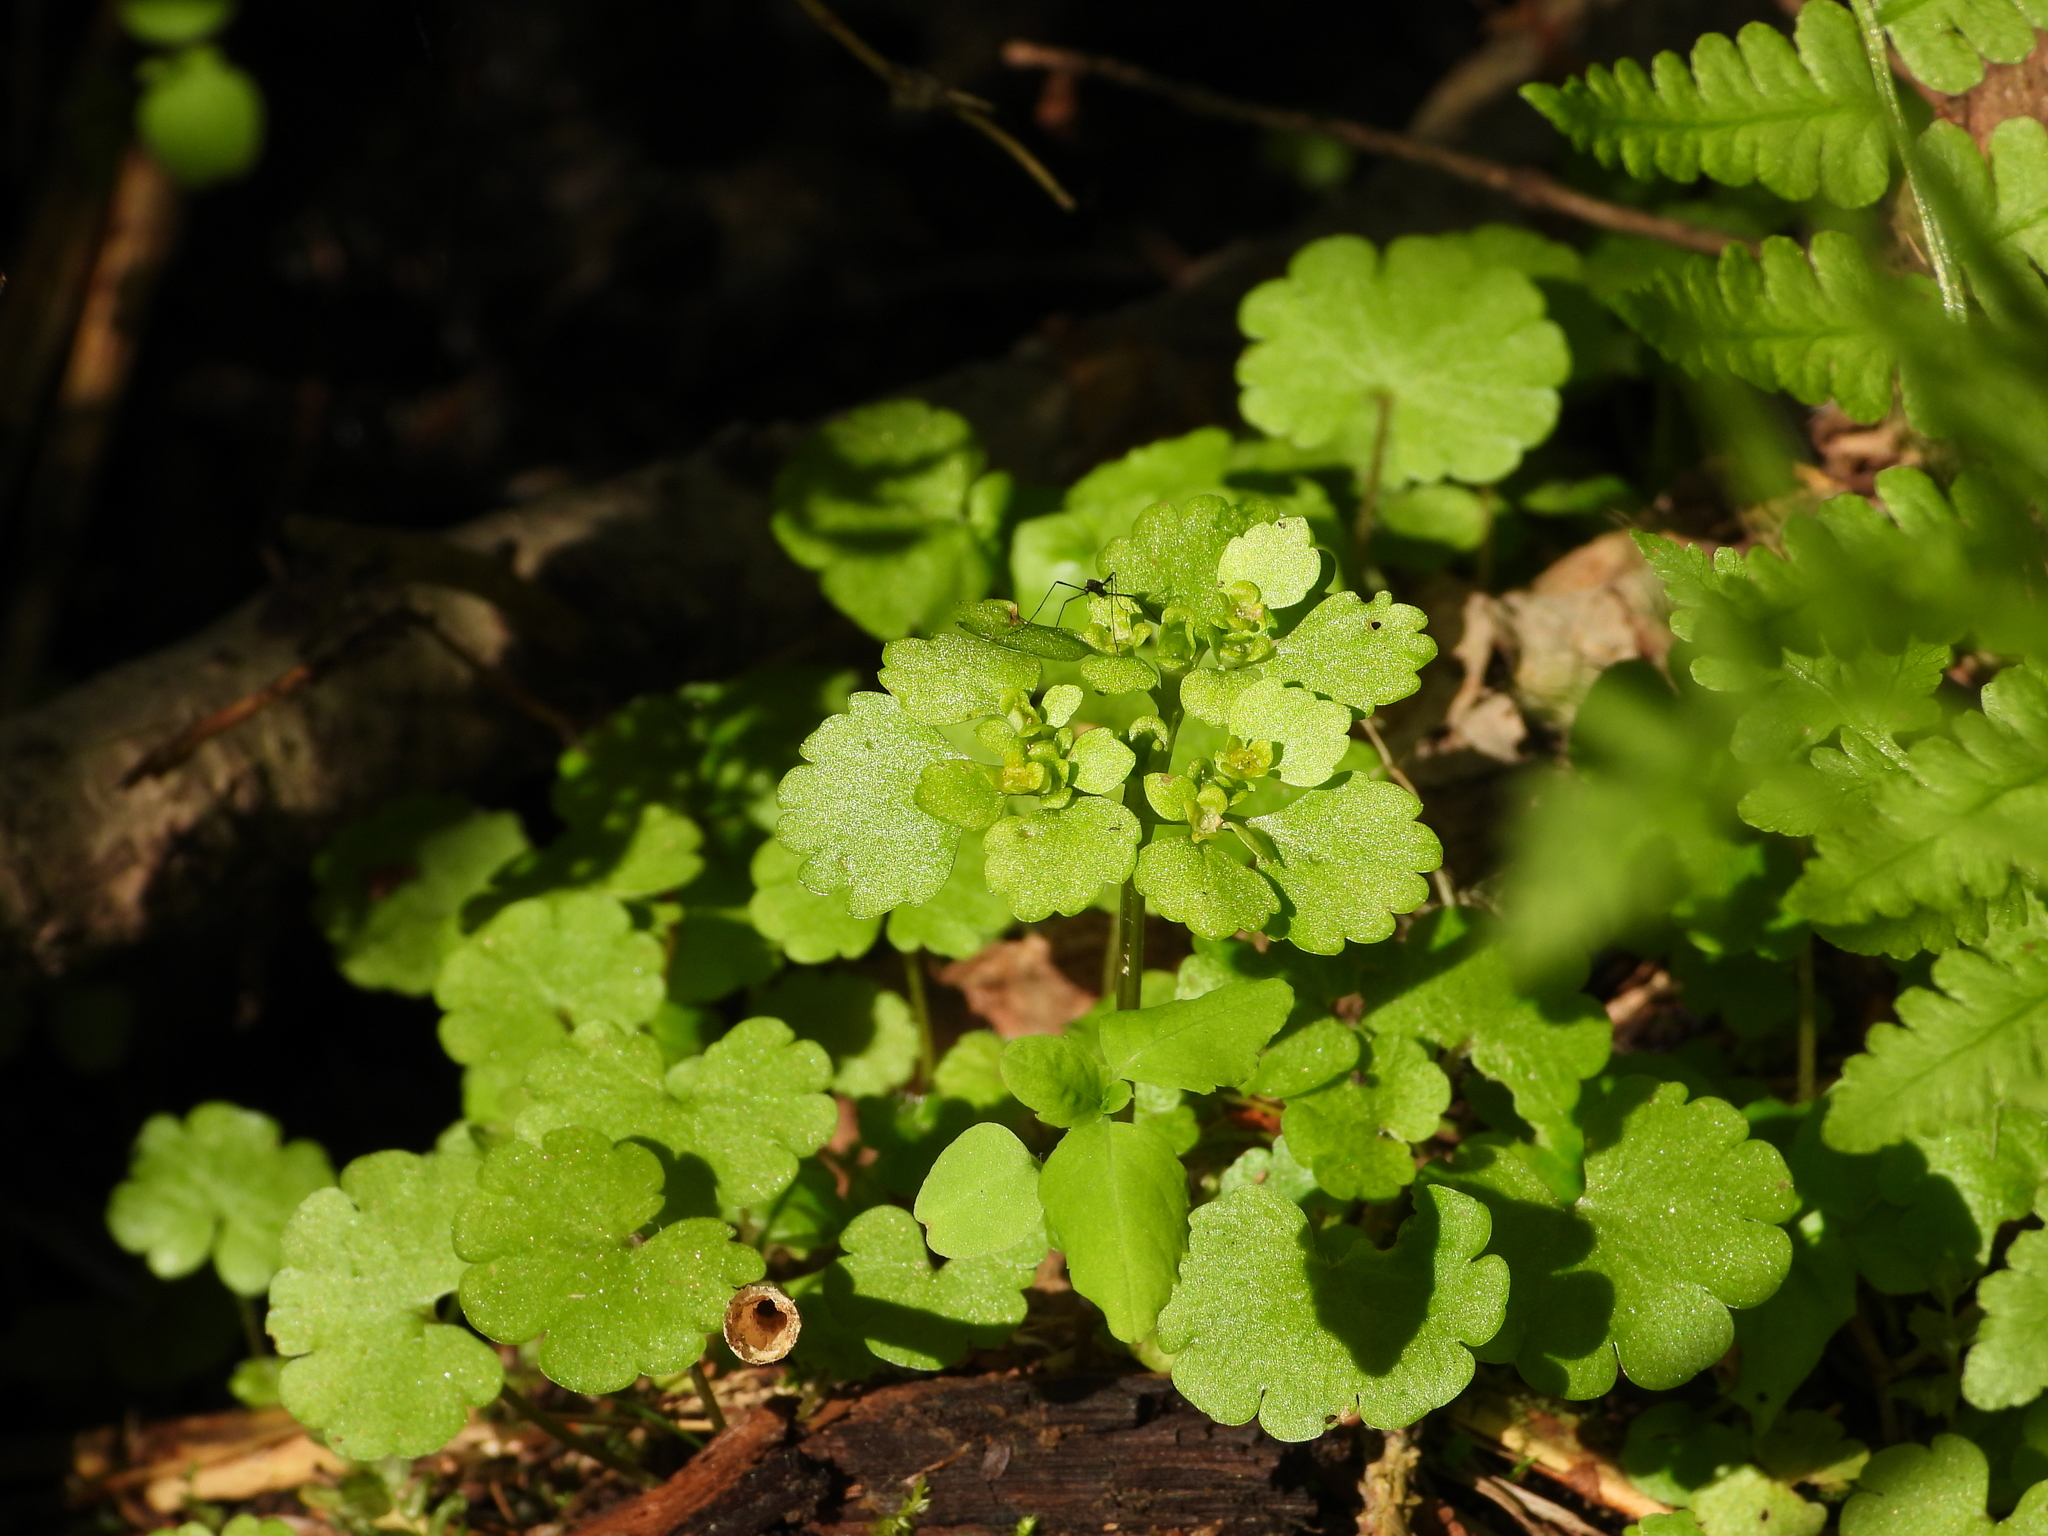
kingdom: Plantae
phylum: Tracheophyta
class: Magnoliopsida
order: Saxifragales
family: Saxifragaceae
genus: Chrysosplenium
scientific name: Chrysosplenium alternifolium
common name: Alternate-leaved golden-saxifrage
